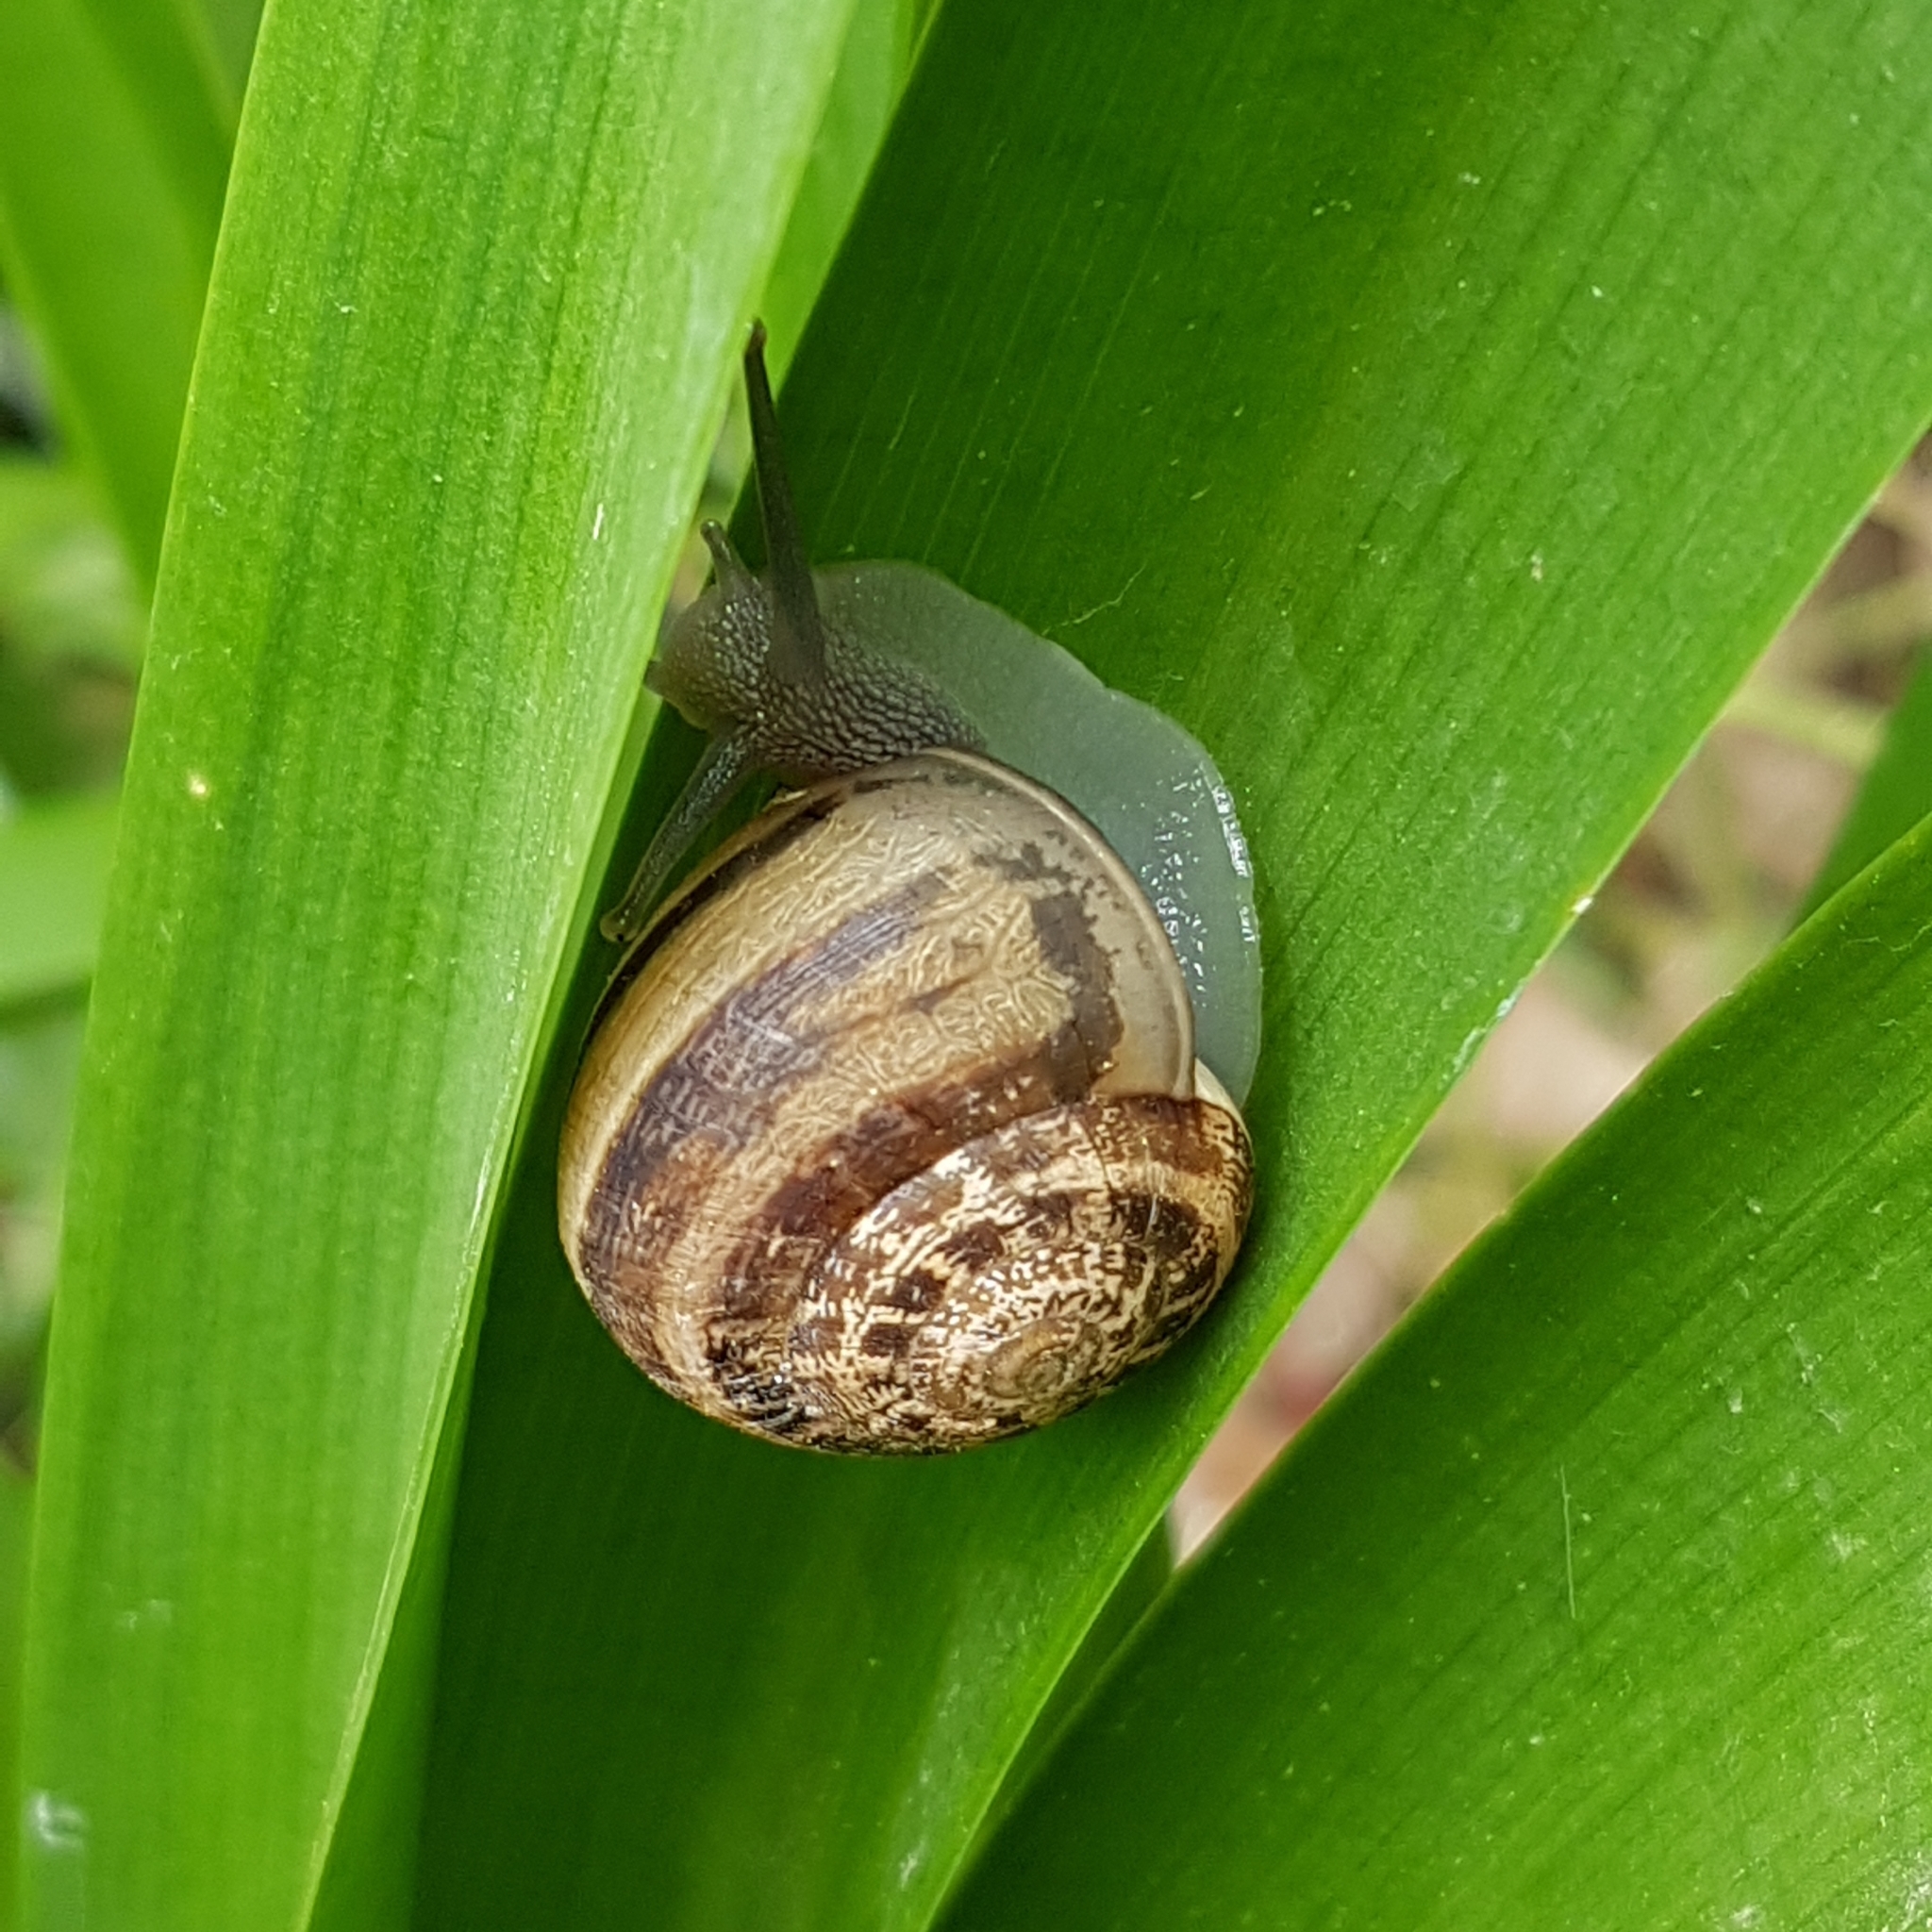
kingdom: Animalia
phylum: Mollusca
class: Gastropoda
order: Stylommatophora
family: Helicidae
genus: Eobania
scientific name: Eobania vermiculata
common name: Chocolateband snail
